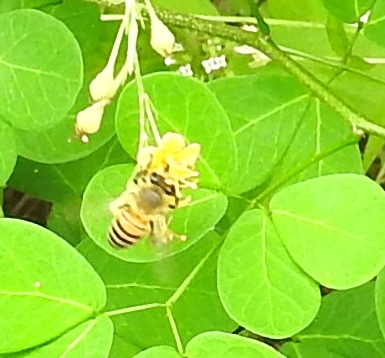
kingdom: Animalia
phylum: Arthropoda
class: Insecta
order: Hymenoptera
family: Apidae
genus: Apis
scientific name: Apis mellifera
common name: Honey bee
